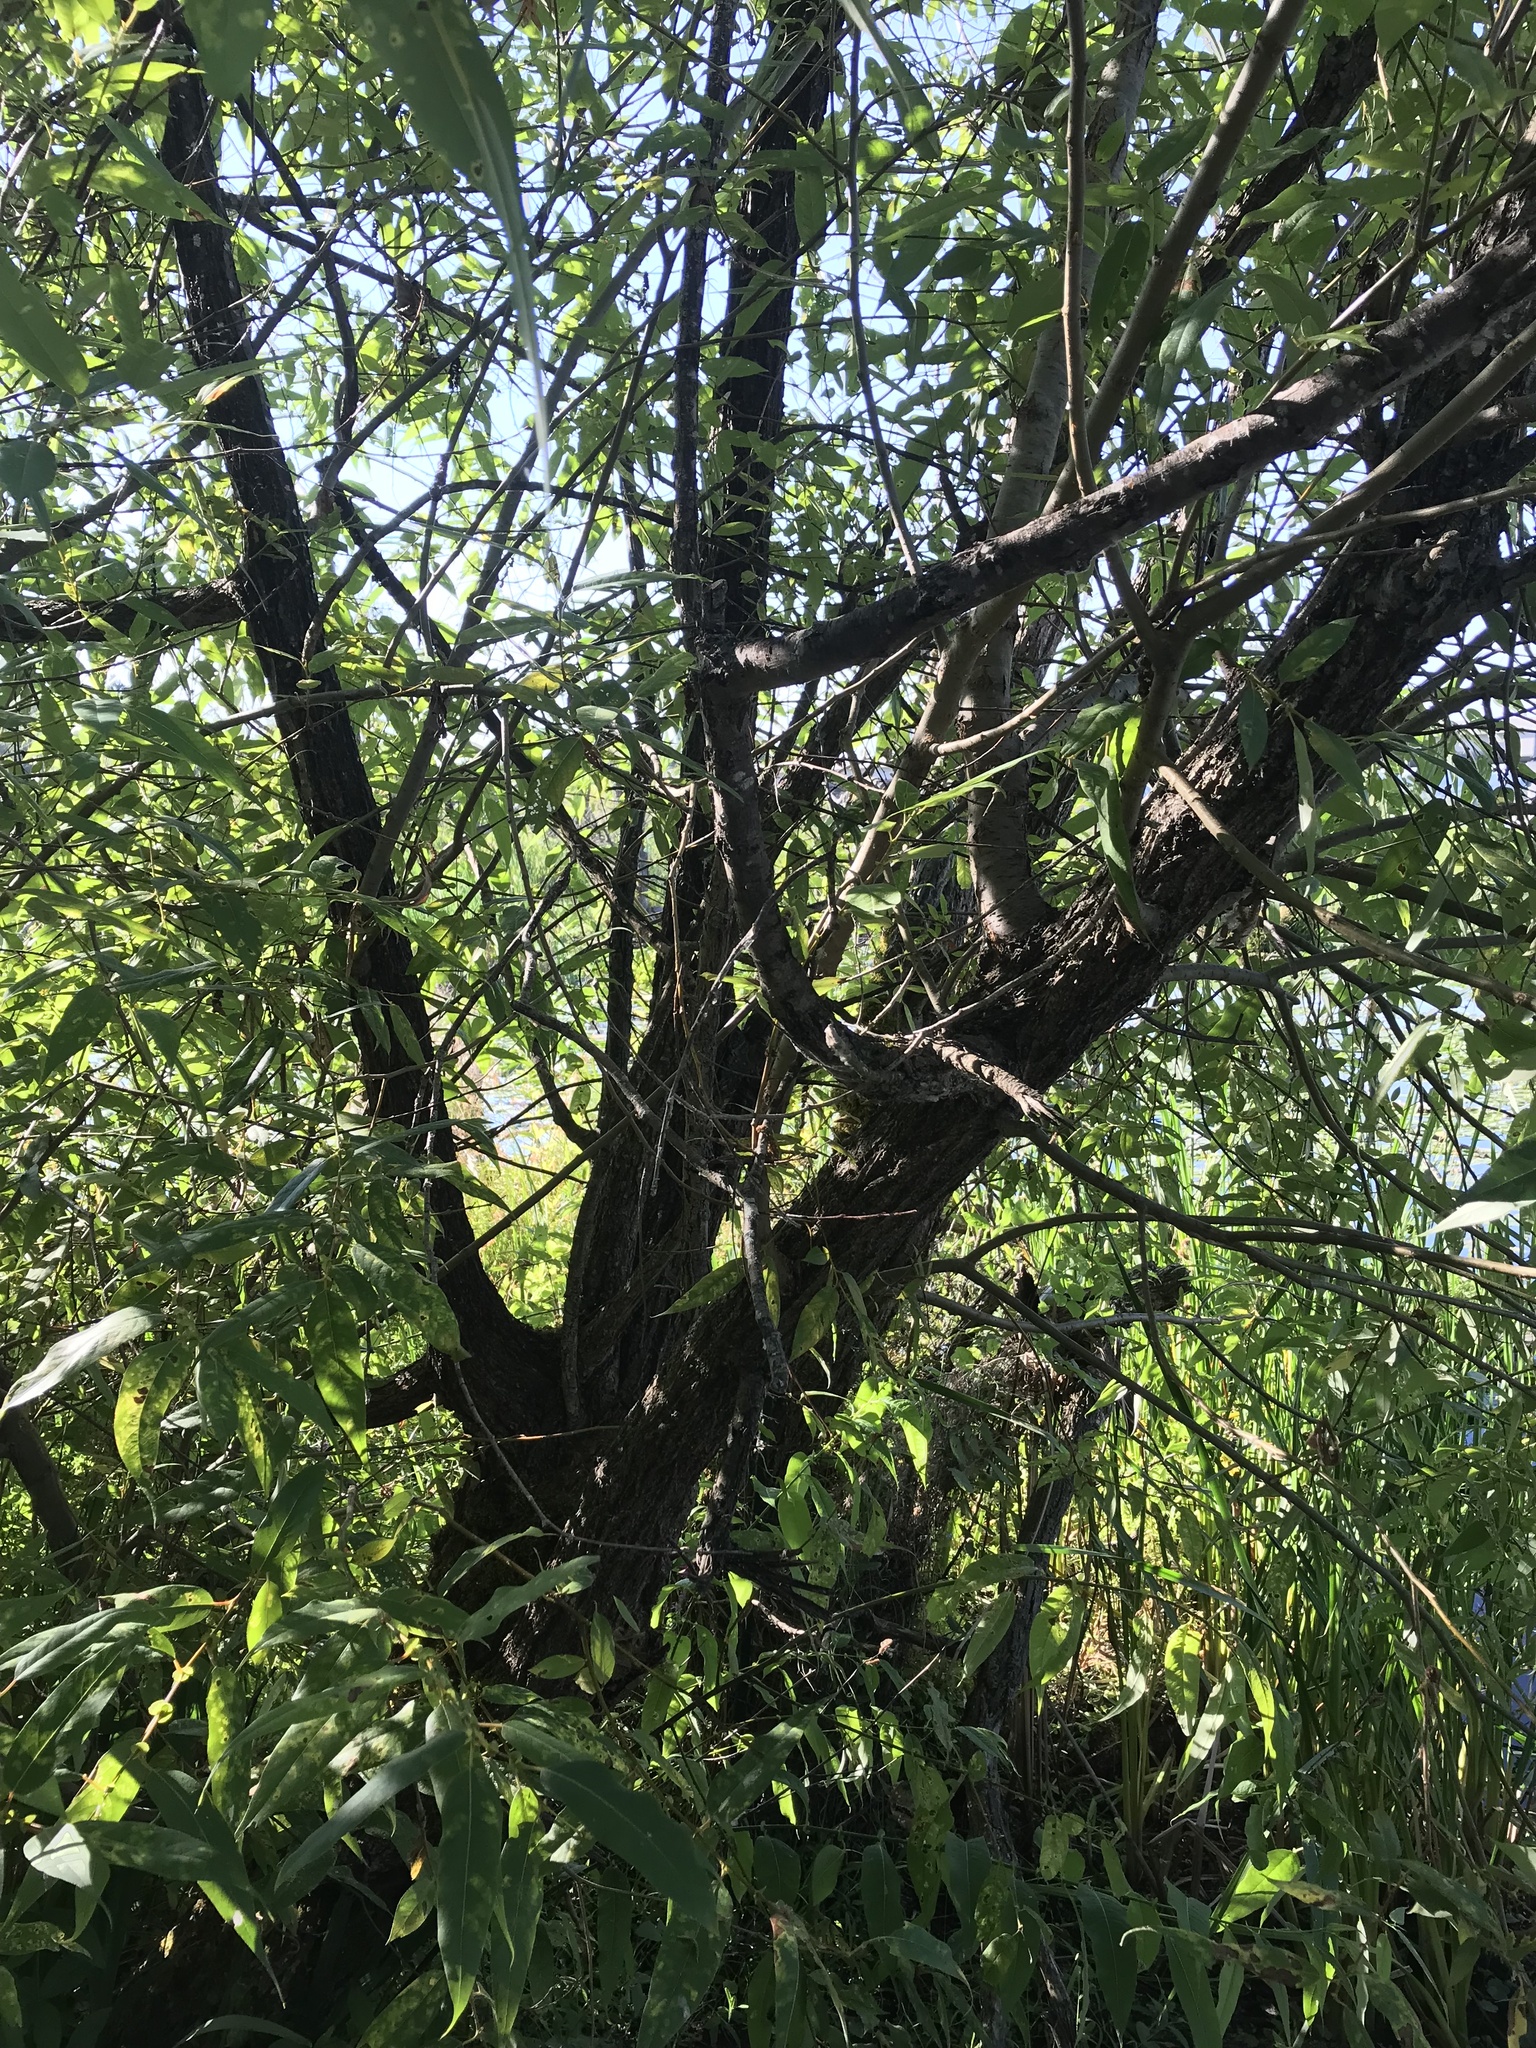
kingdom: Plantae
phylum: Tracheophyta
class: Magnoliopsida
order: Malpighiales
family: Salicaceae
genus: Salix
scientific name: Salix lucida
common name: Shining willow
